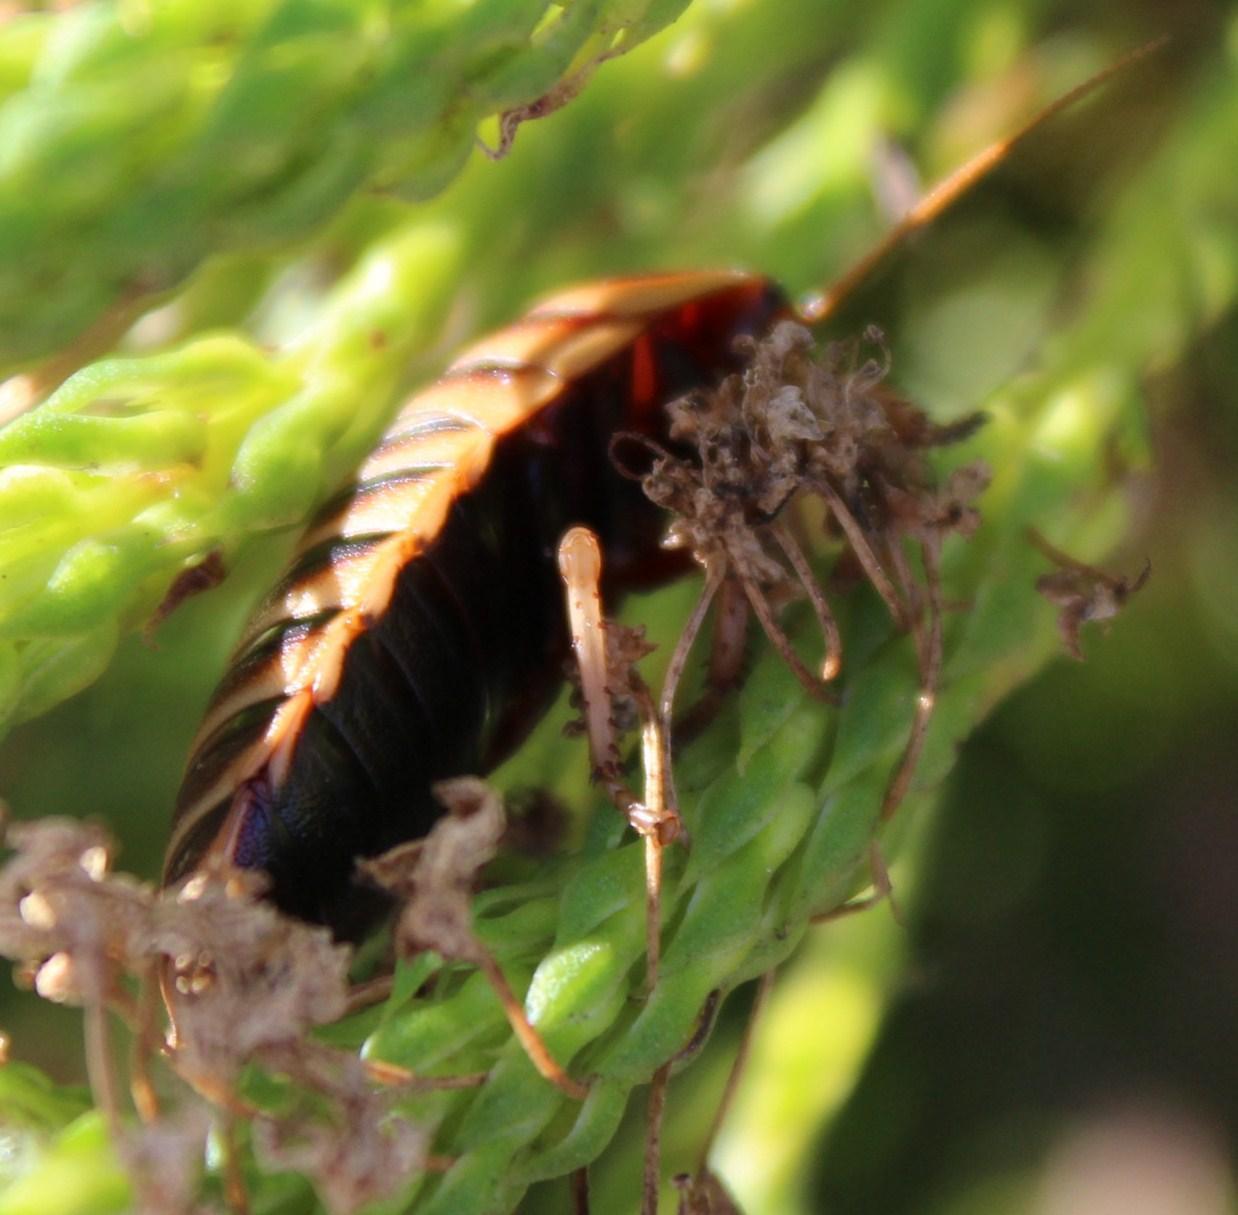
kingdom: Animalia
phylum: Arthropoda
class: Insecta
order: Blattodea
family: Blaberidae
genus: Aptera
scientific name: Aptera fusca
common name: Cape mountain cockroach
